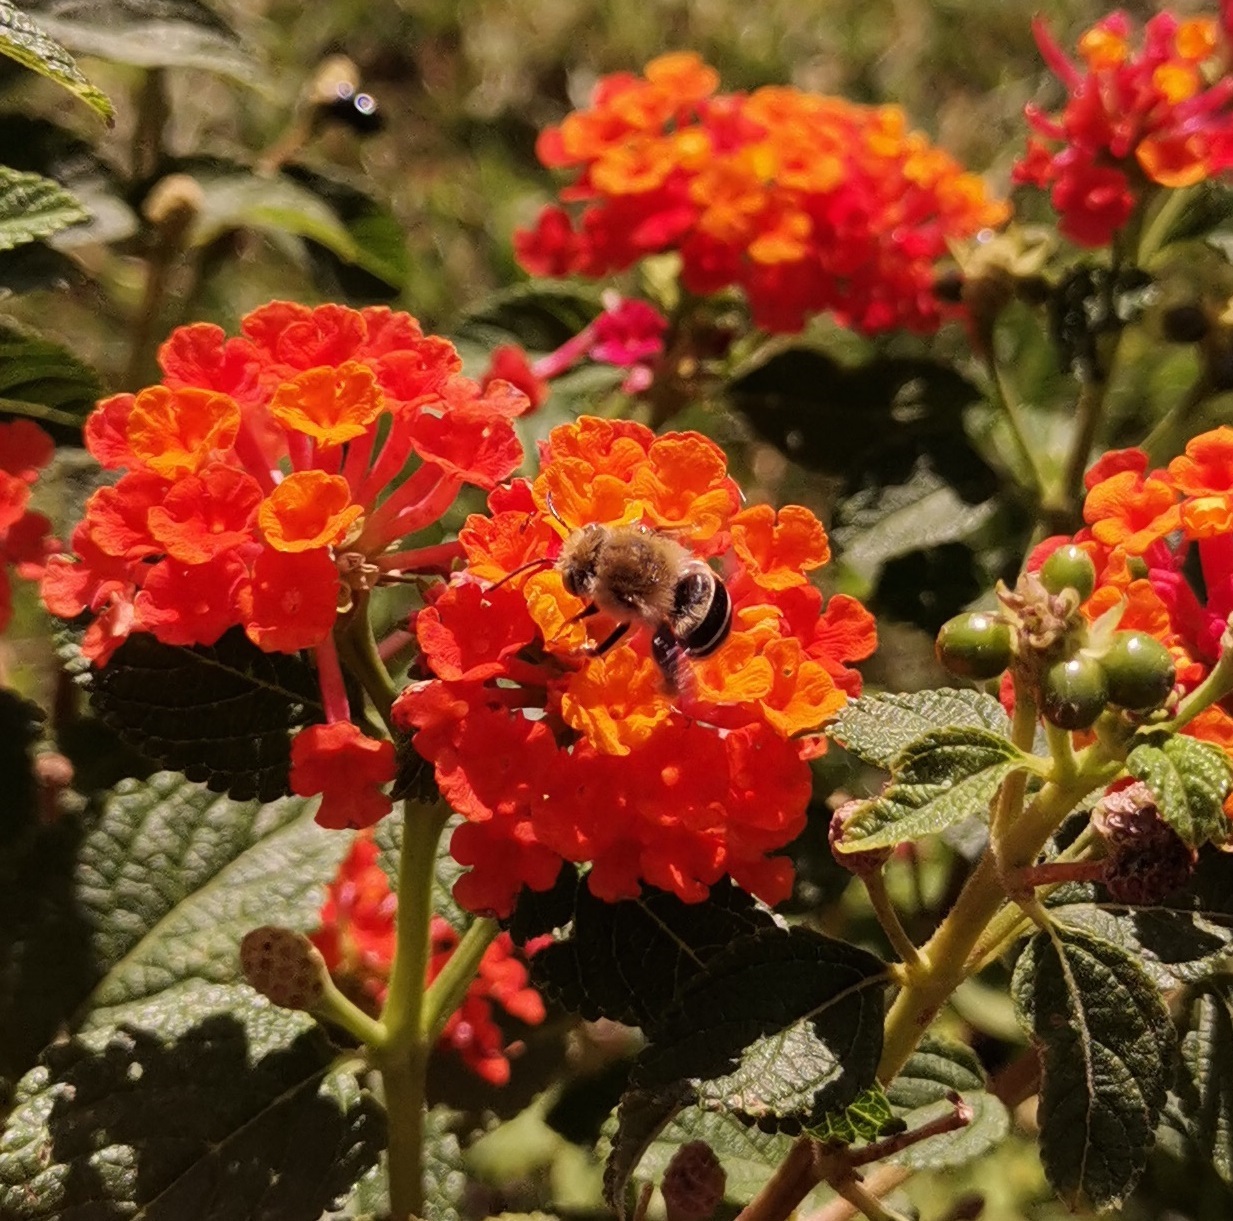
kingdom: Animalia
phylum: Arthropoda
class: Insecta
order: Hymenoptera
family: Apidae
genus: Anthophora
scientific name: Anthophora californica
